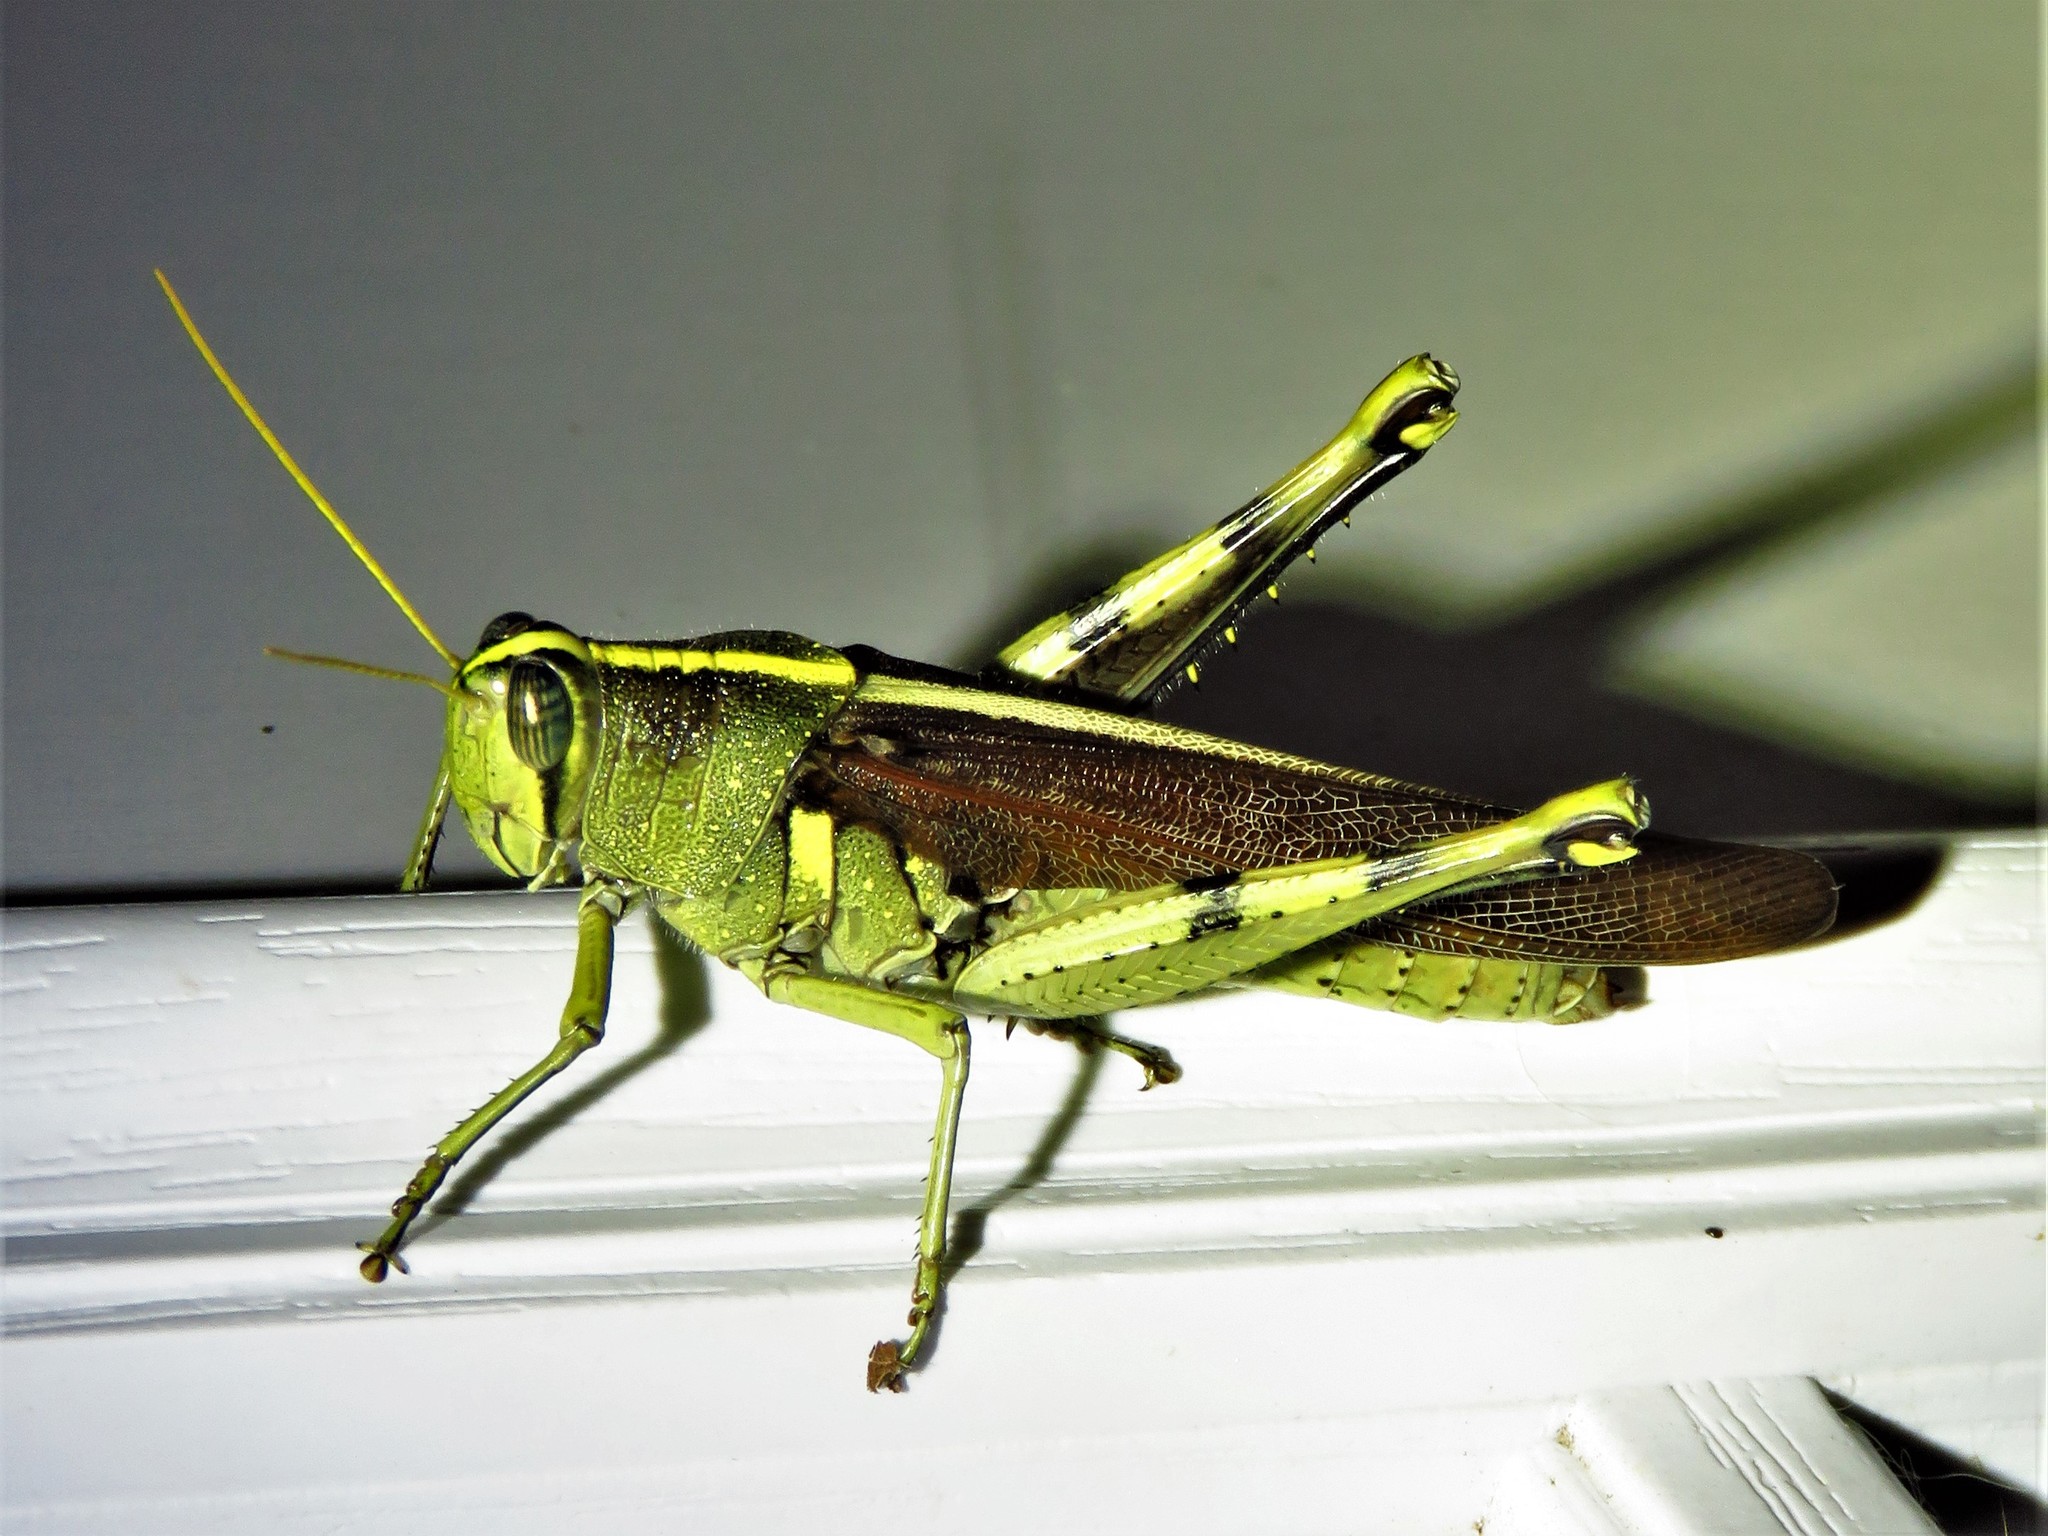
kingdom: Animalia
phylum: Arthropoda
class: Insecta
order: Orthoptera
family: Acrididae
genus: Schistocerca
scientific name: Schistocerca obscura
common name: Obscure bird grasshopper
